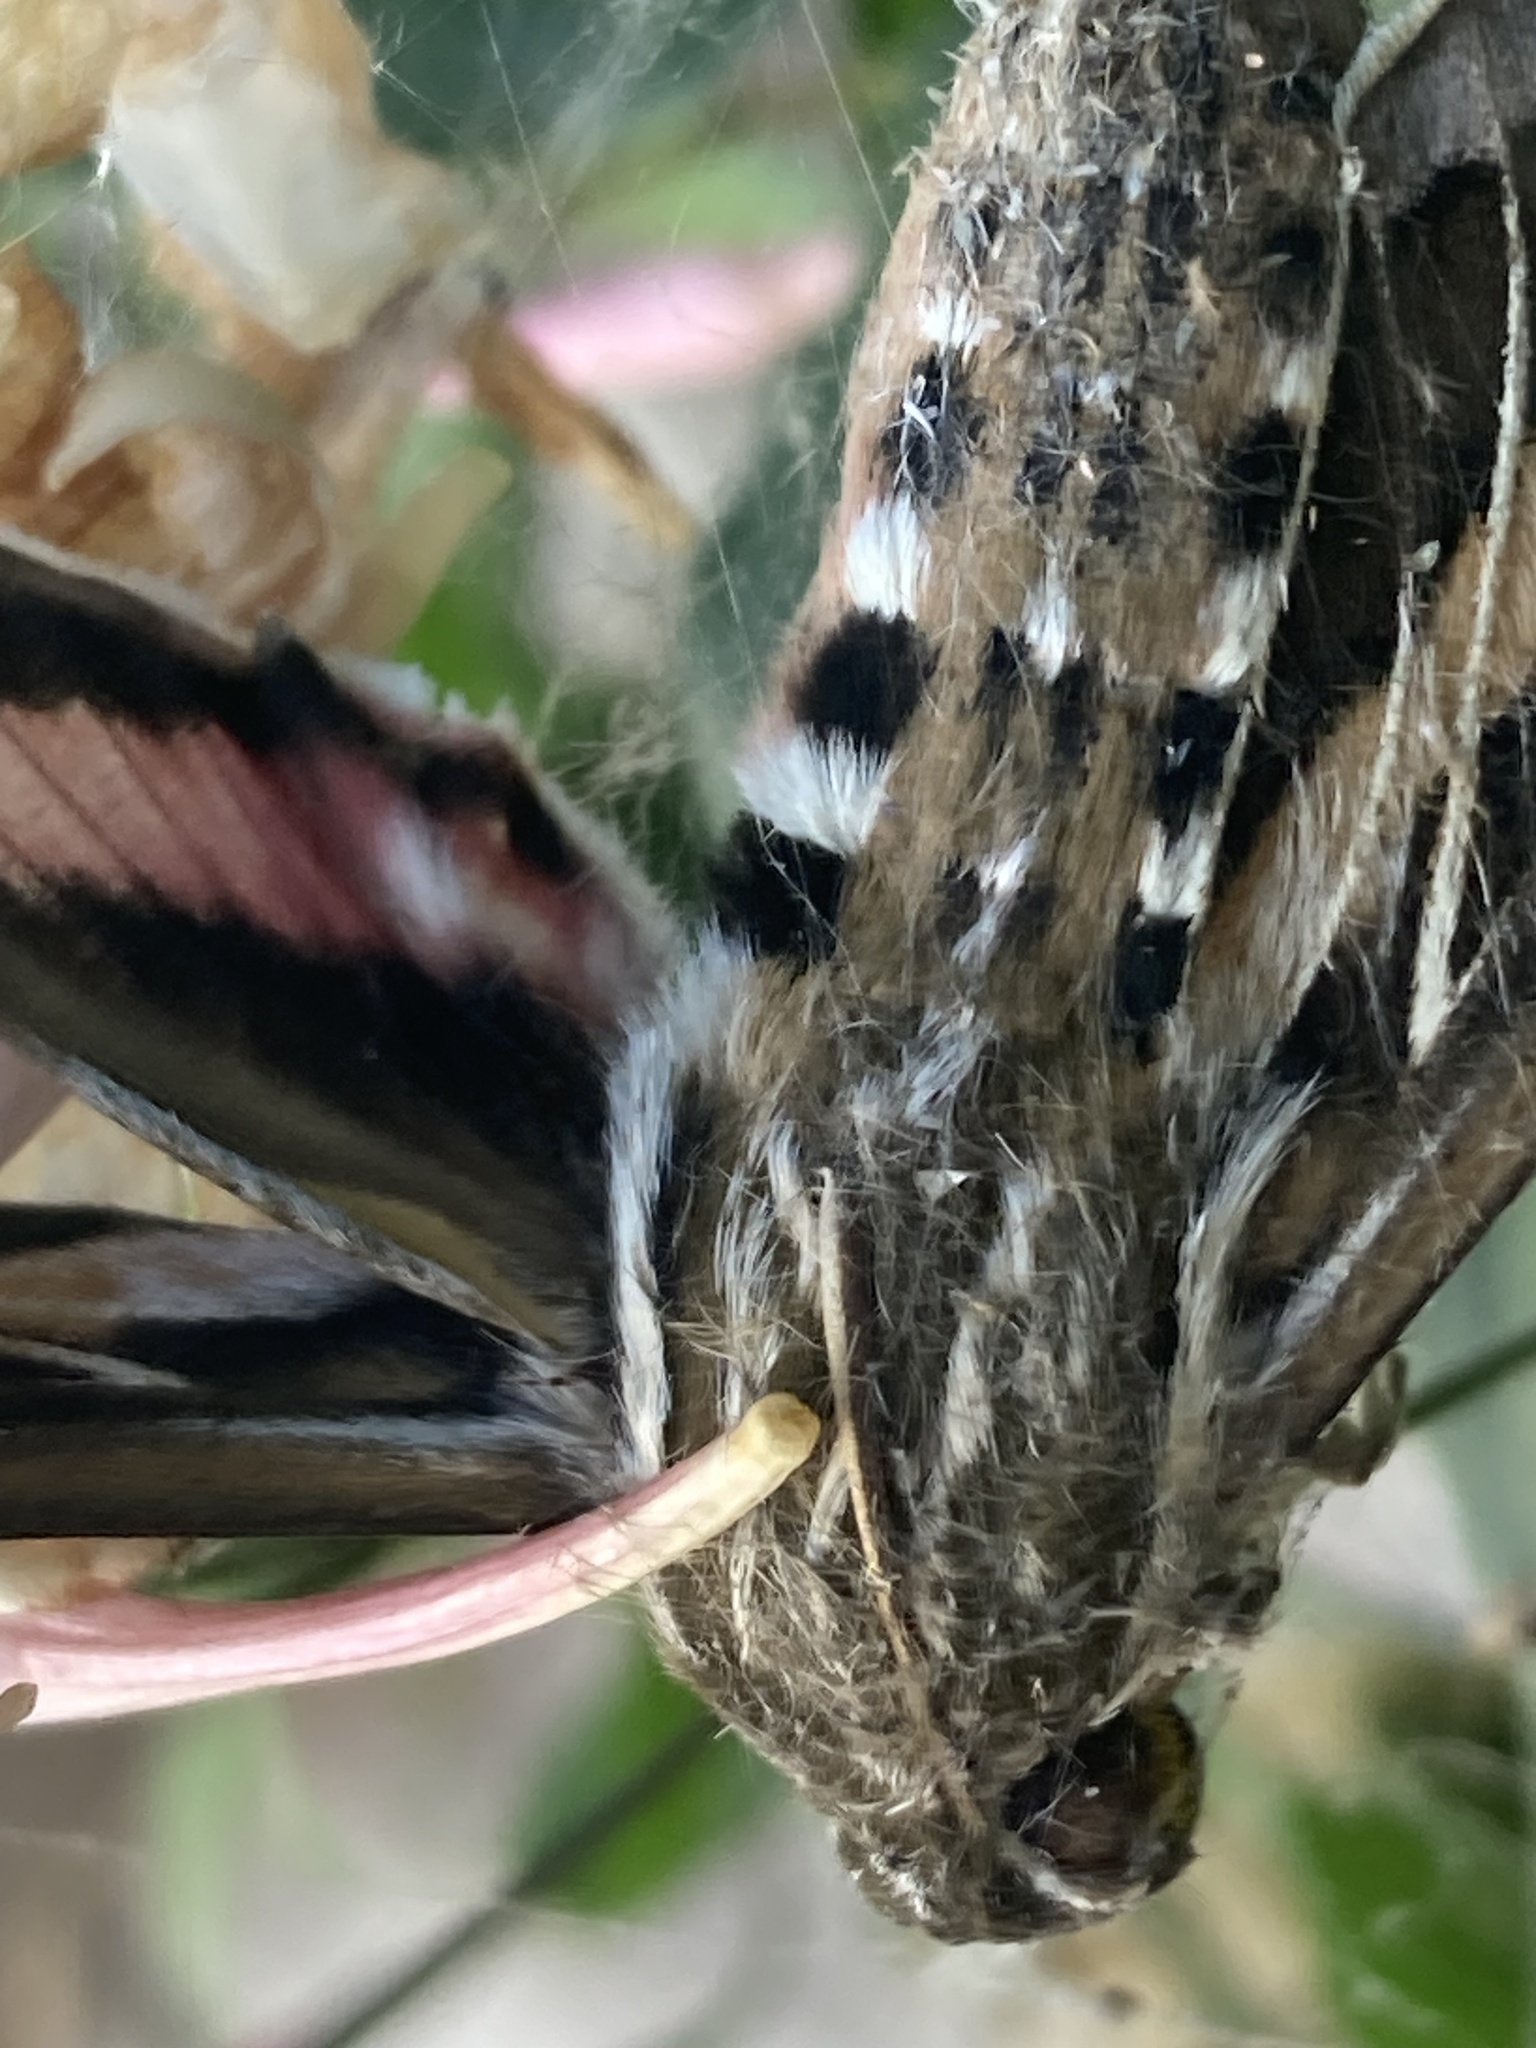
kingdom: Animalia
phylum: Arthropoda
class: Insecta
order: Lepidoptera
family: Sphingidae
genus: Hyles
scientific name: Hyles lineata
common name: White-lined sphinx
